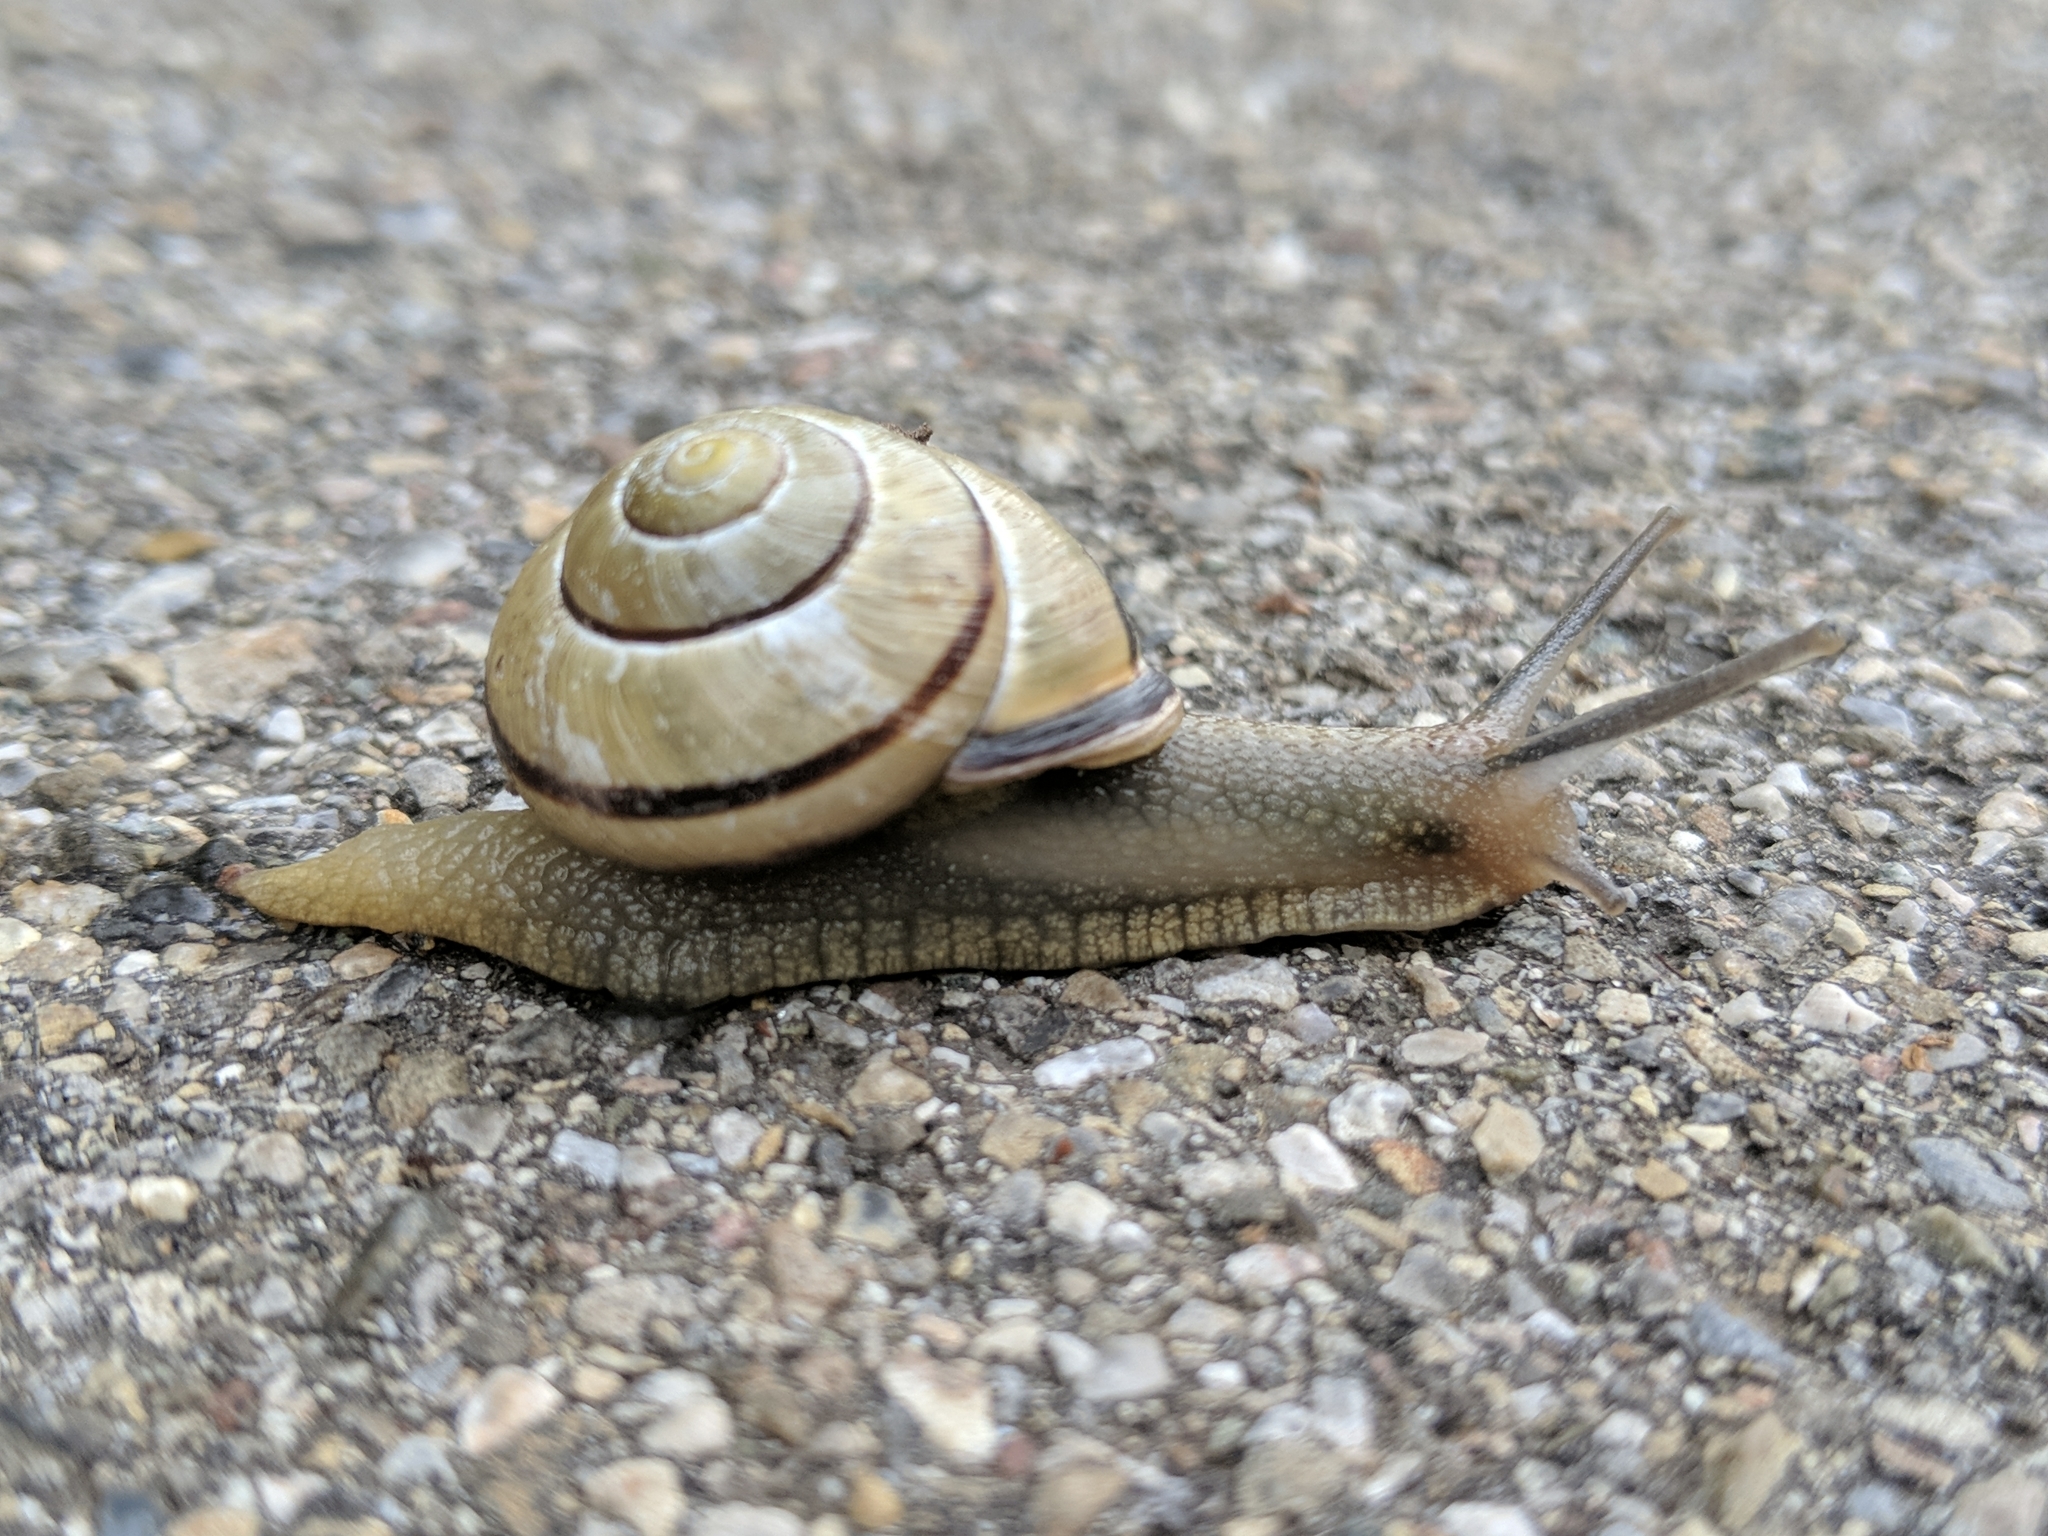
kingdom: Animalia
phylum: Mollusca
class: Gastropoda
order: Stylommatophora
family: Helicidae
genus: Cepaea
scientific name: Cepaea nemoralis
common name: Grovesnail
